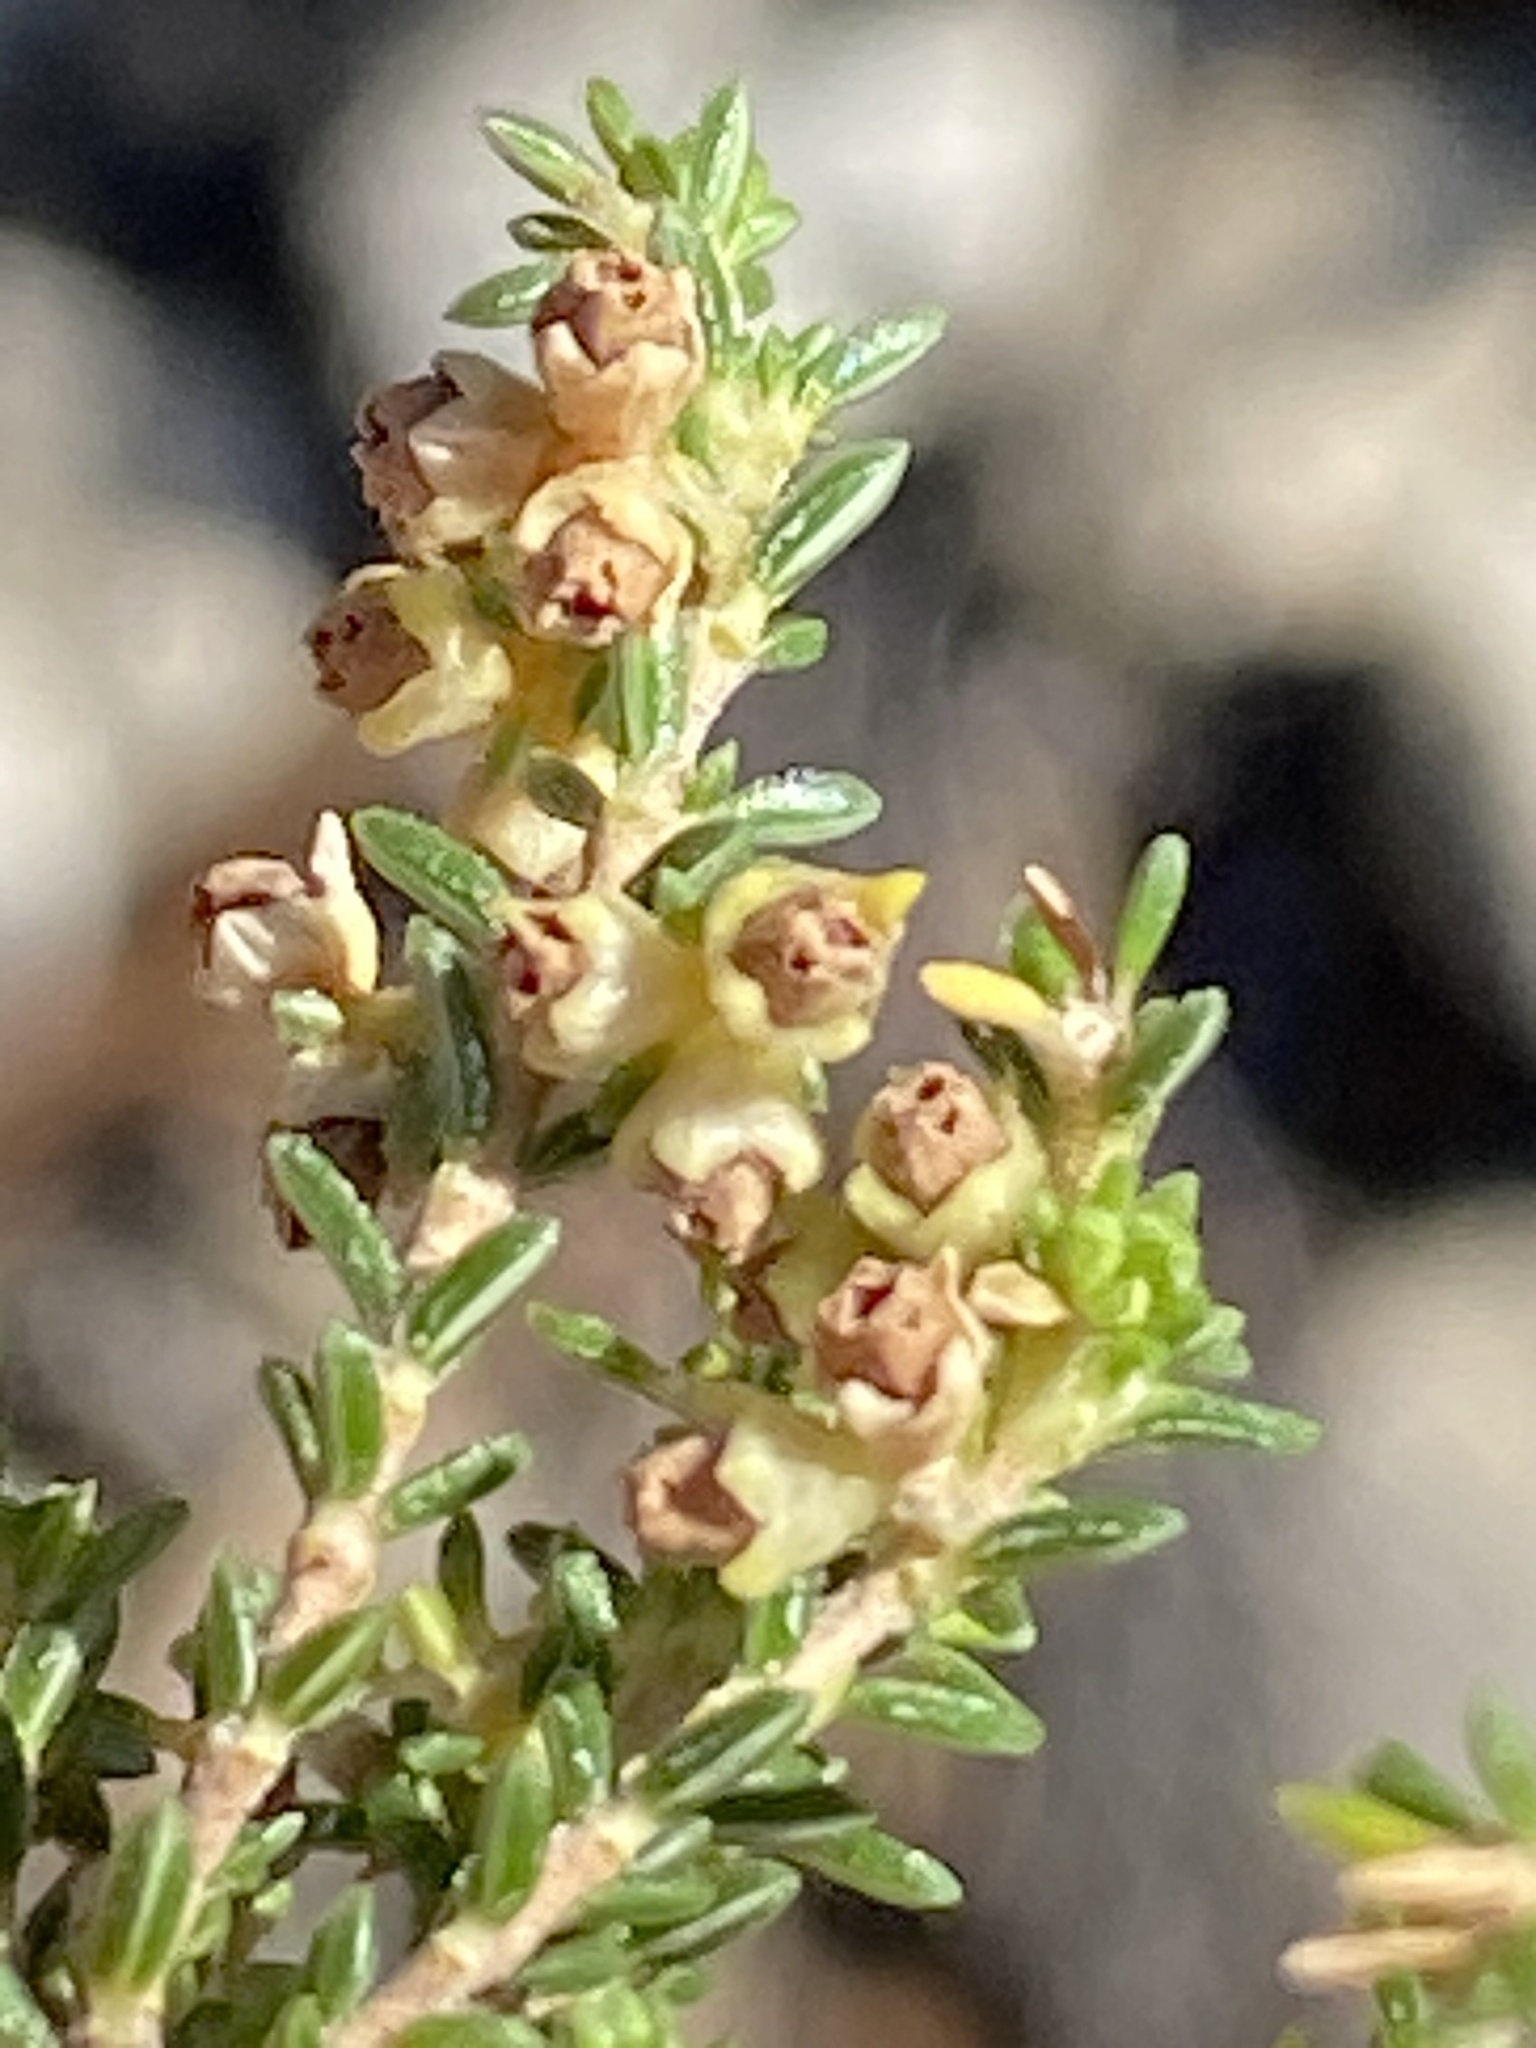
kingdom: Plantae
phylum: Tracheophyta
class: Magnoliopsida
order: Ericales
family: Ericaceae
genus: Erica
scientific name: Erica serrata
